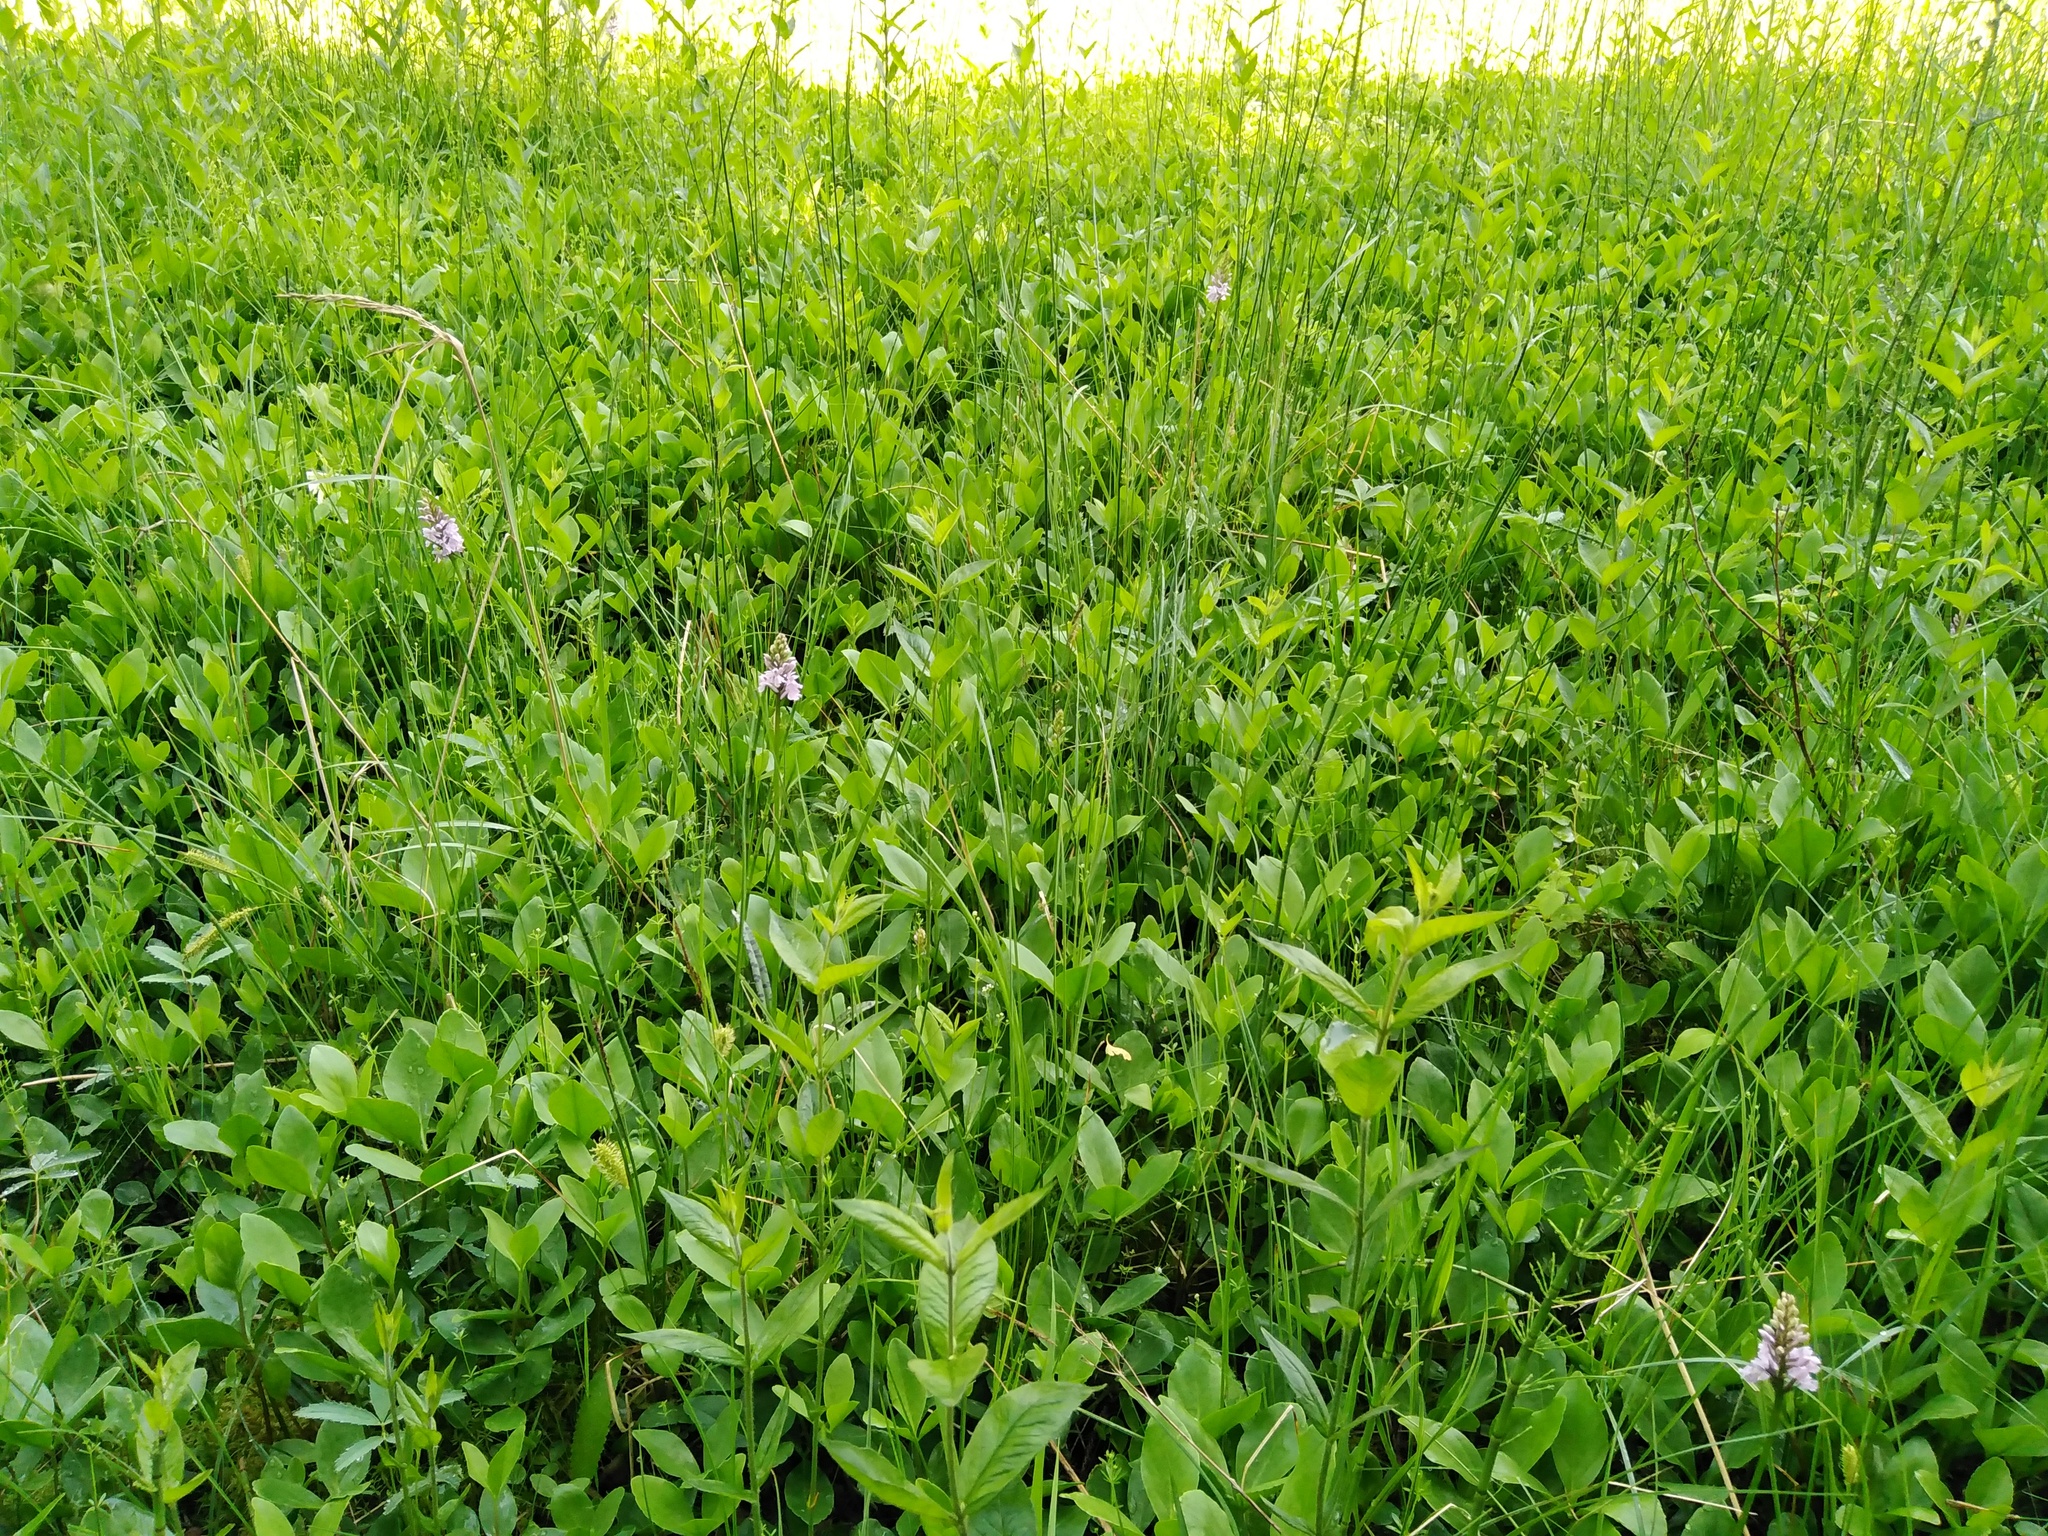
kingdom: Plantae
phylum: Tracheophyta
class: Liliopsida
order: Asparagales
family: Orchidaceae
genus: Dactylorhiza
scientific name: Dactylorhiza maculata
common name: Heath spotted-orchid
